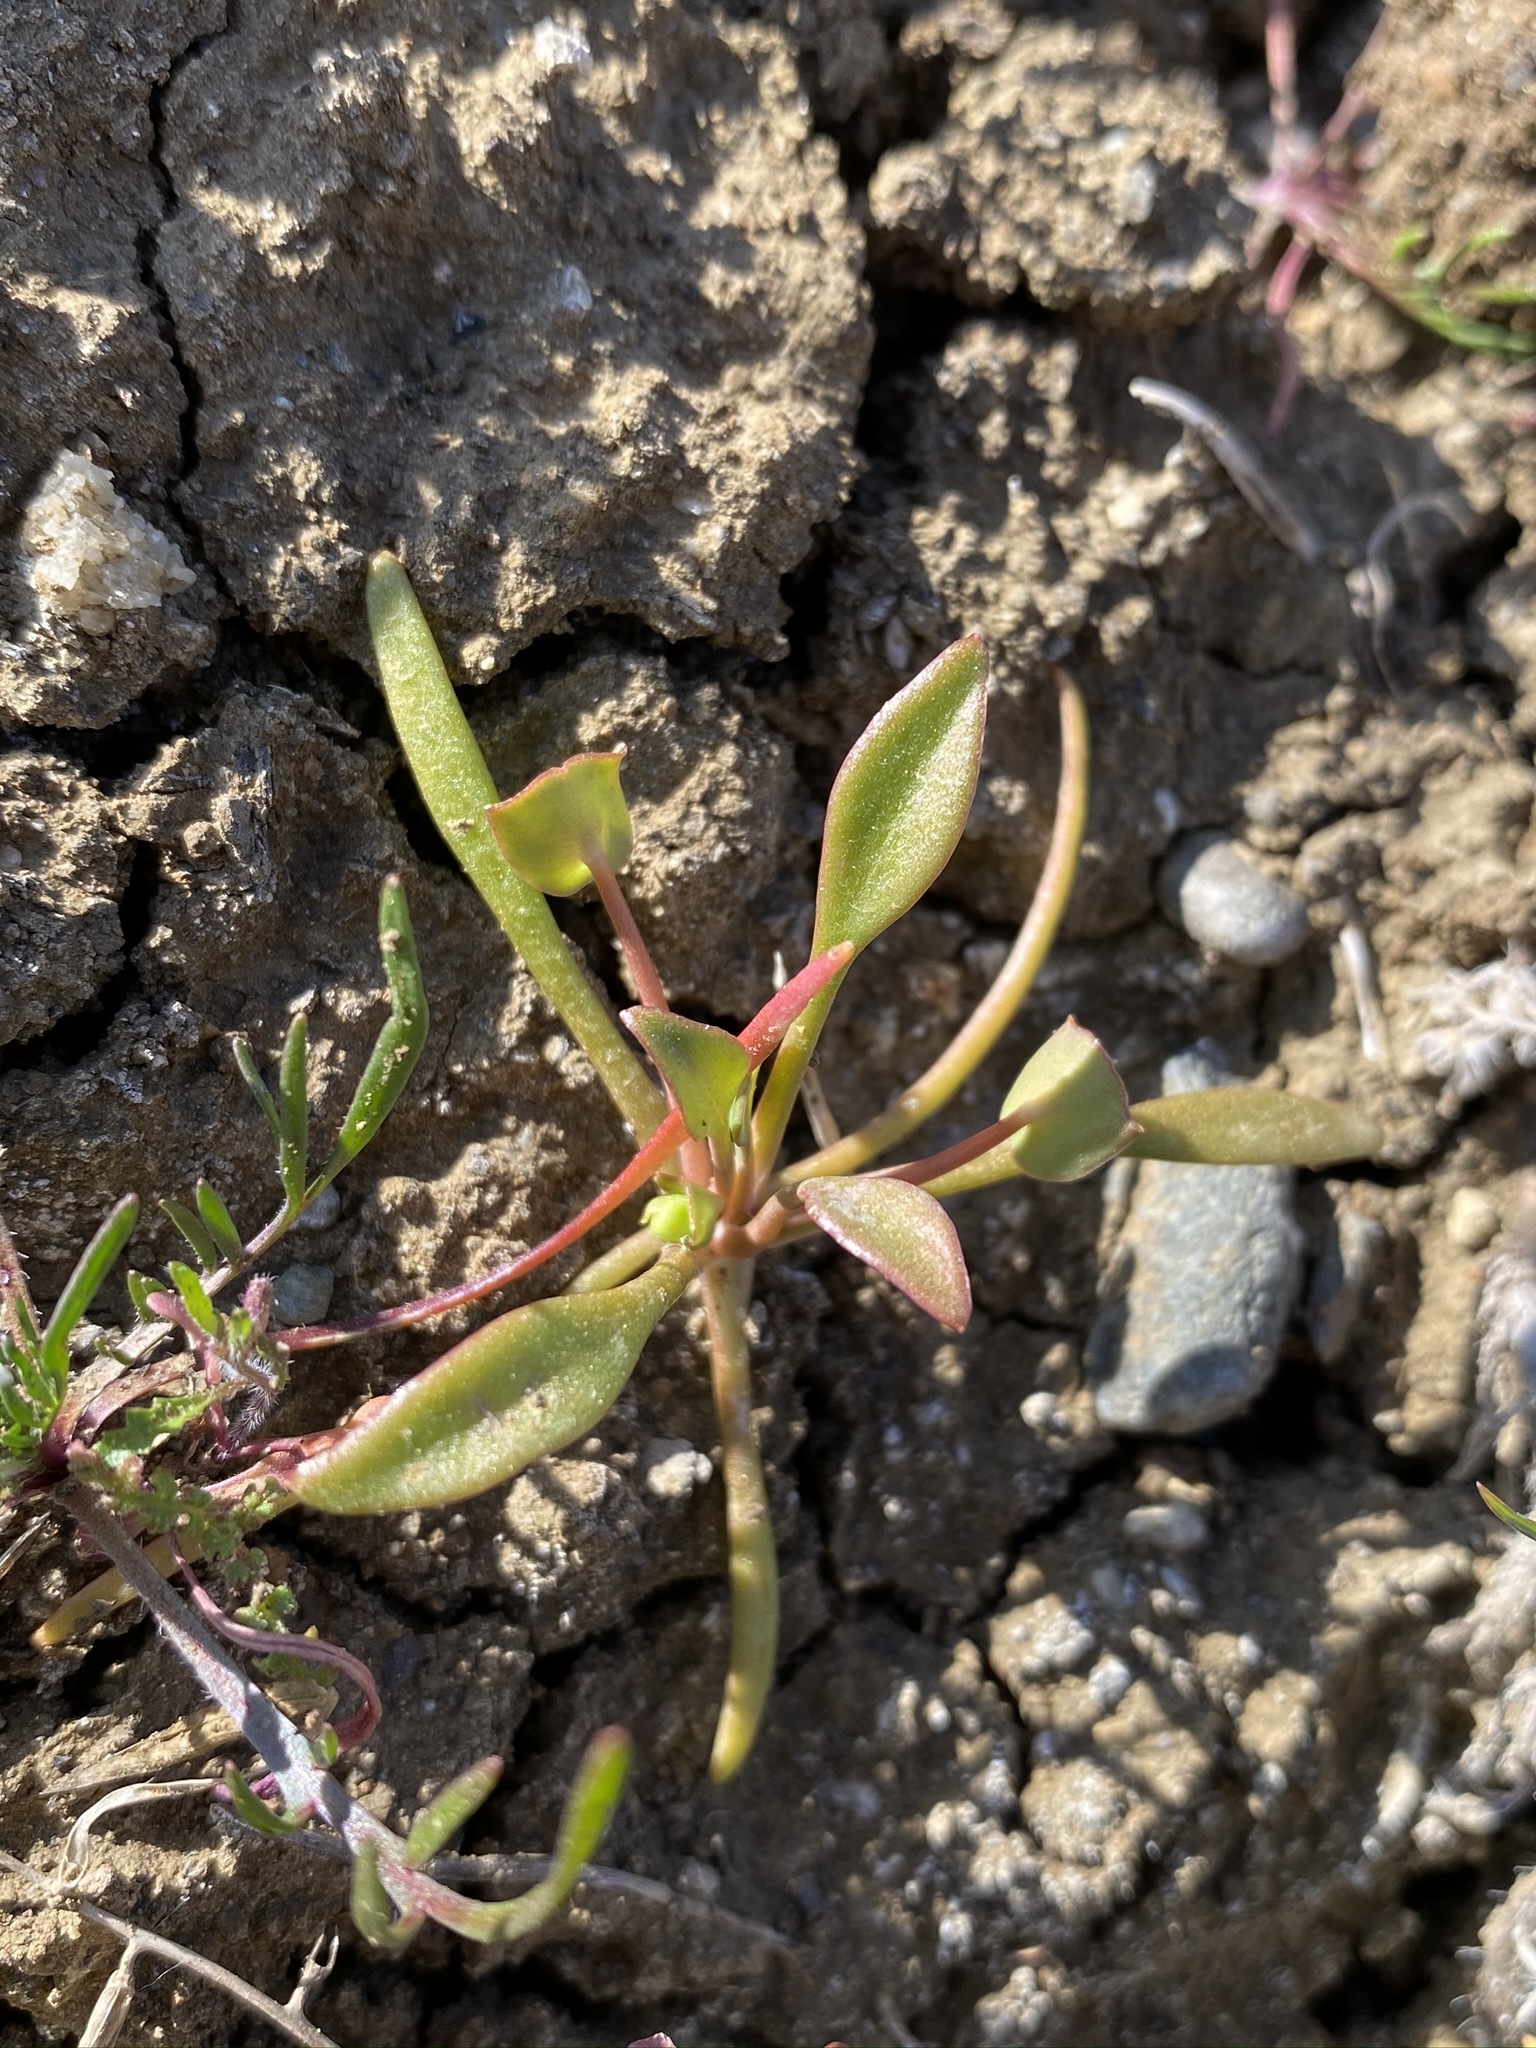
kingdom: Plantae
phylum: Tracheophyta
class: Magnoliopsida
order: Caryophyllales
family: Montiaceae
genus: Claytonia
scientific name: Claytonia perfoliata
